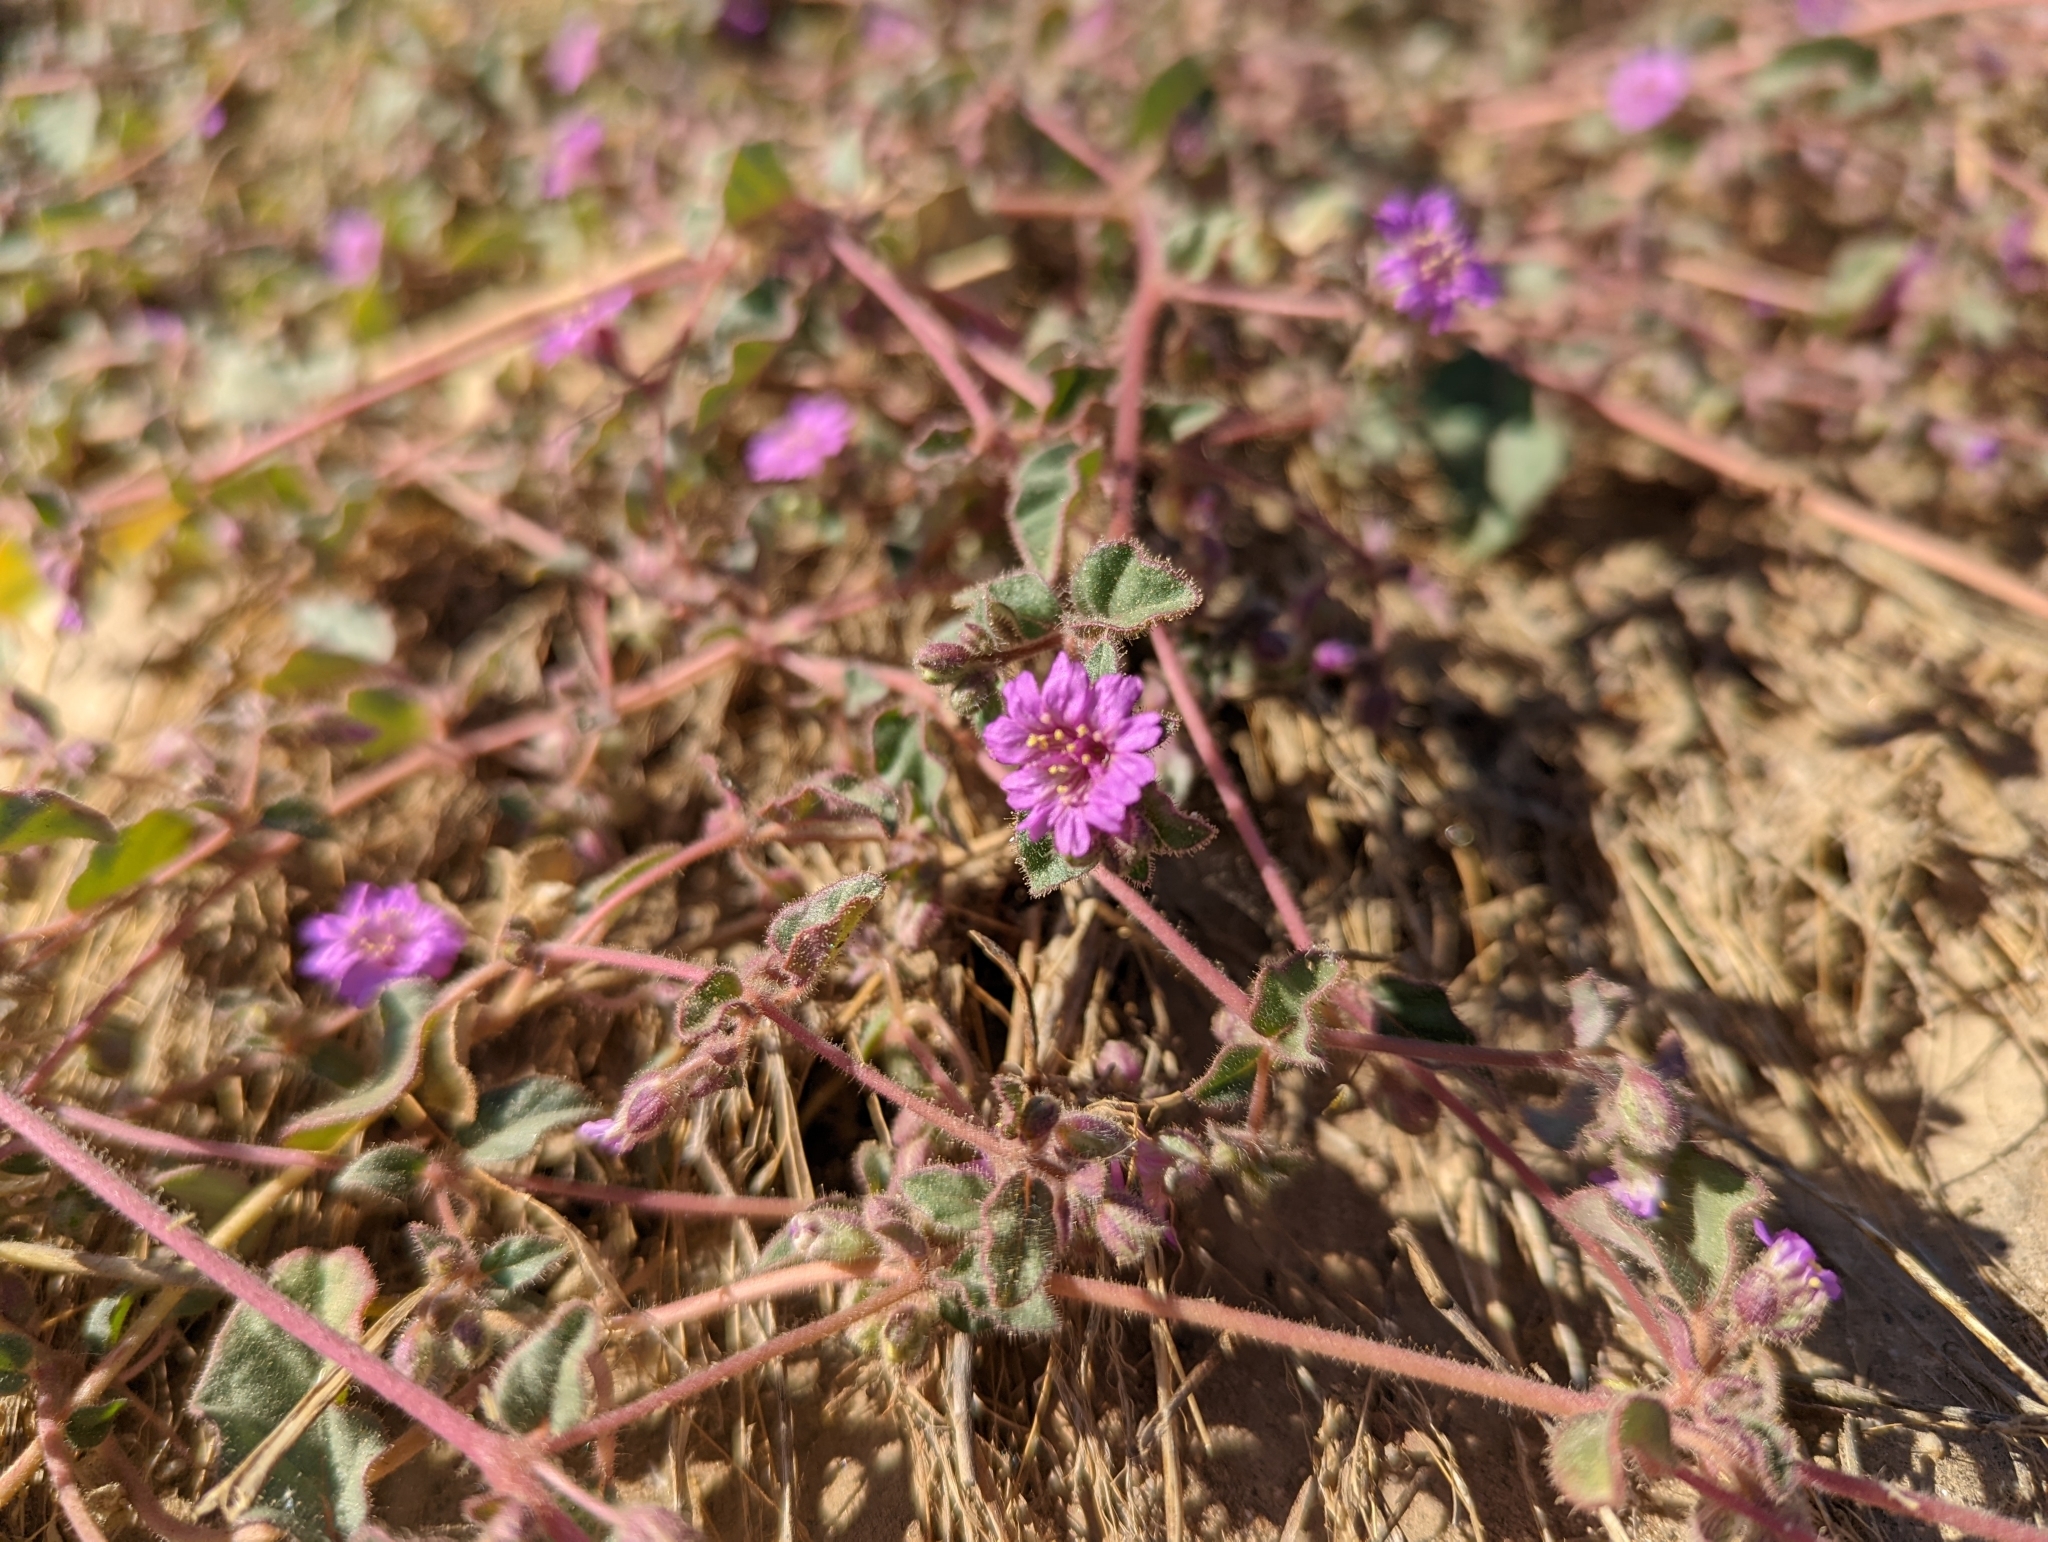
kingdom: Plantae
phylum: Tracheophyta
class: Magnoliopsida
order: Caryophyllales
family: Nyctaginaceae
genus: Allionia
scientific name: Allionia incarnata
